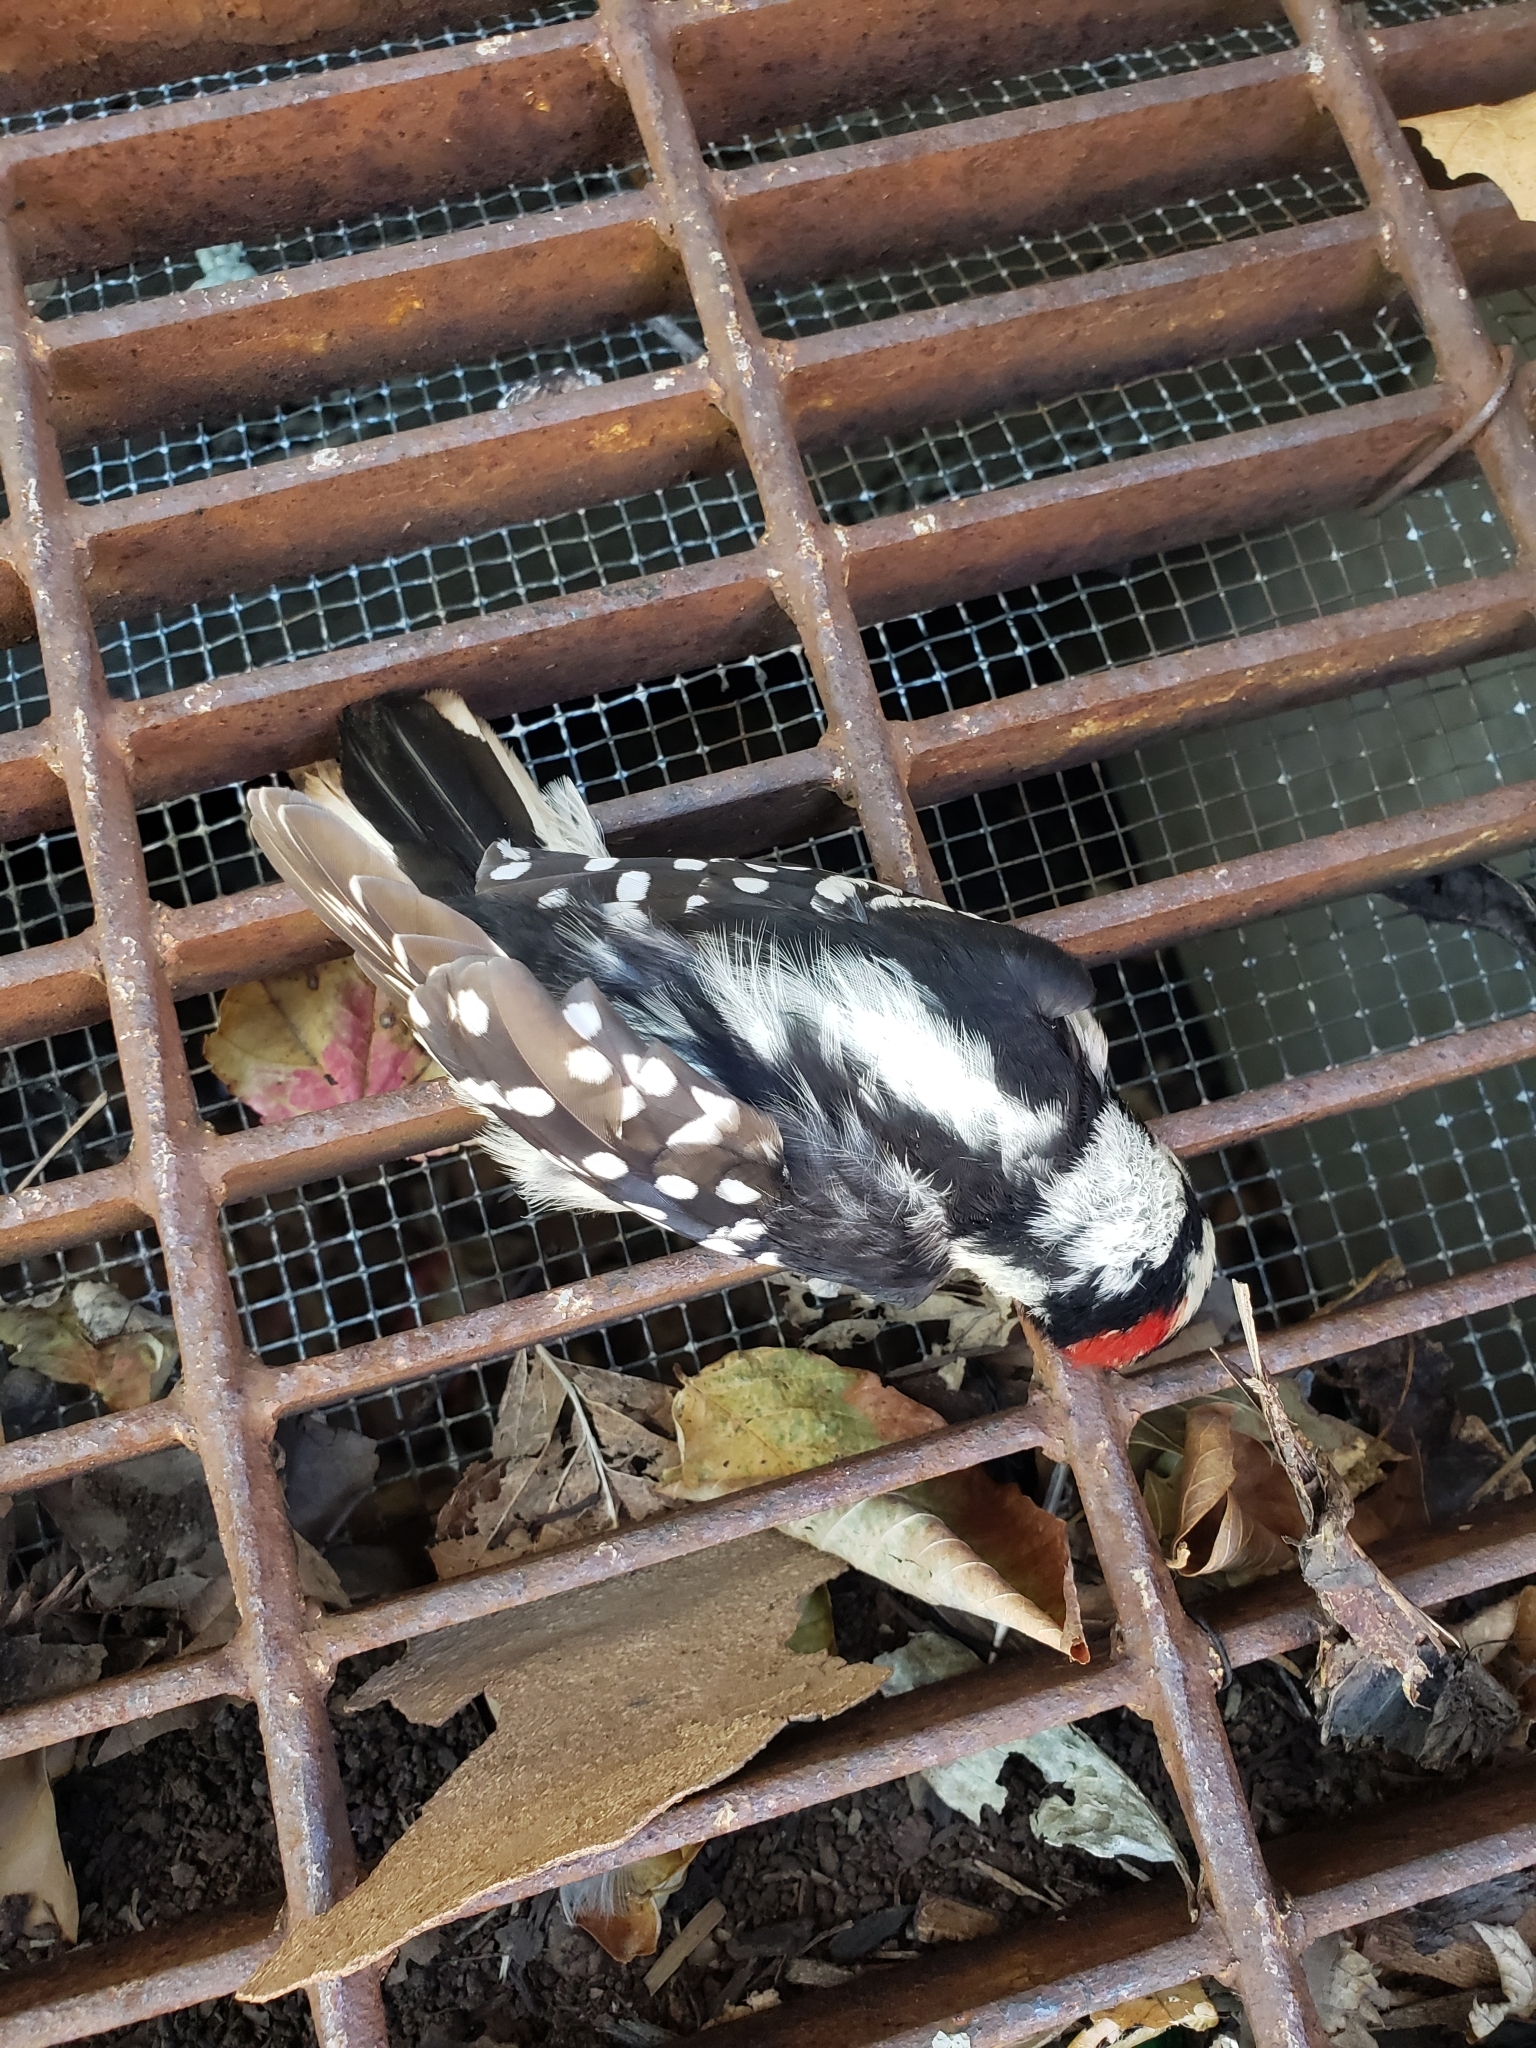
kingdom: Animalia
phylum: Chordata
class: Aves
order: Piciformes
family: Picidae
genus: Dryobates
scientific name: Dryobates pubescens
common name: Downy woodpecker
